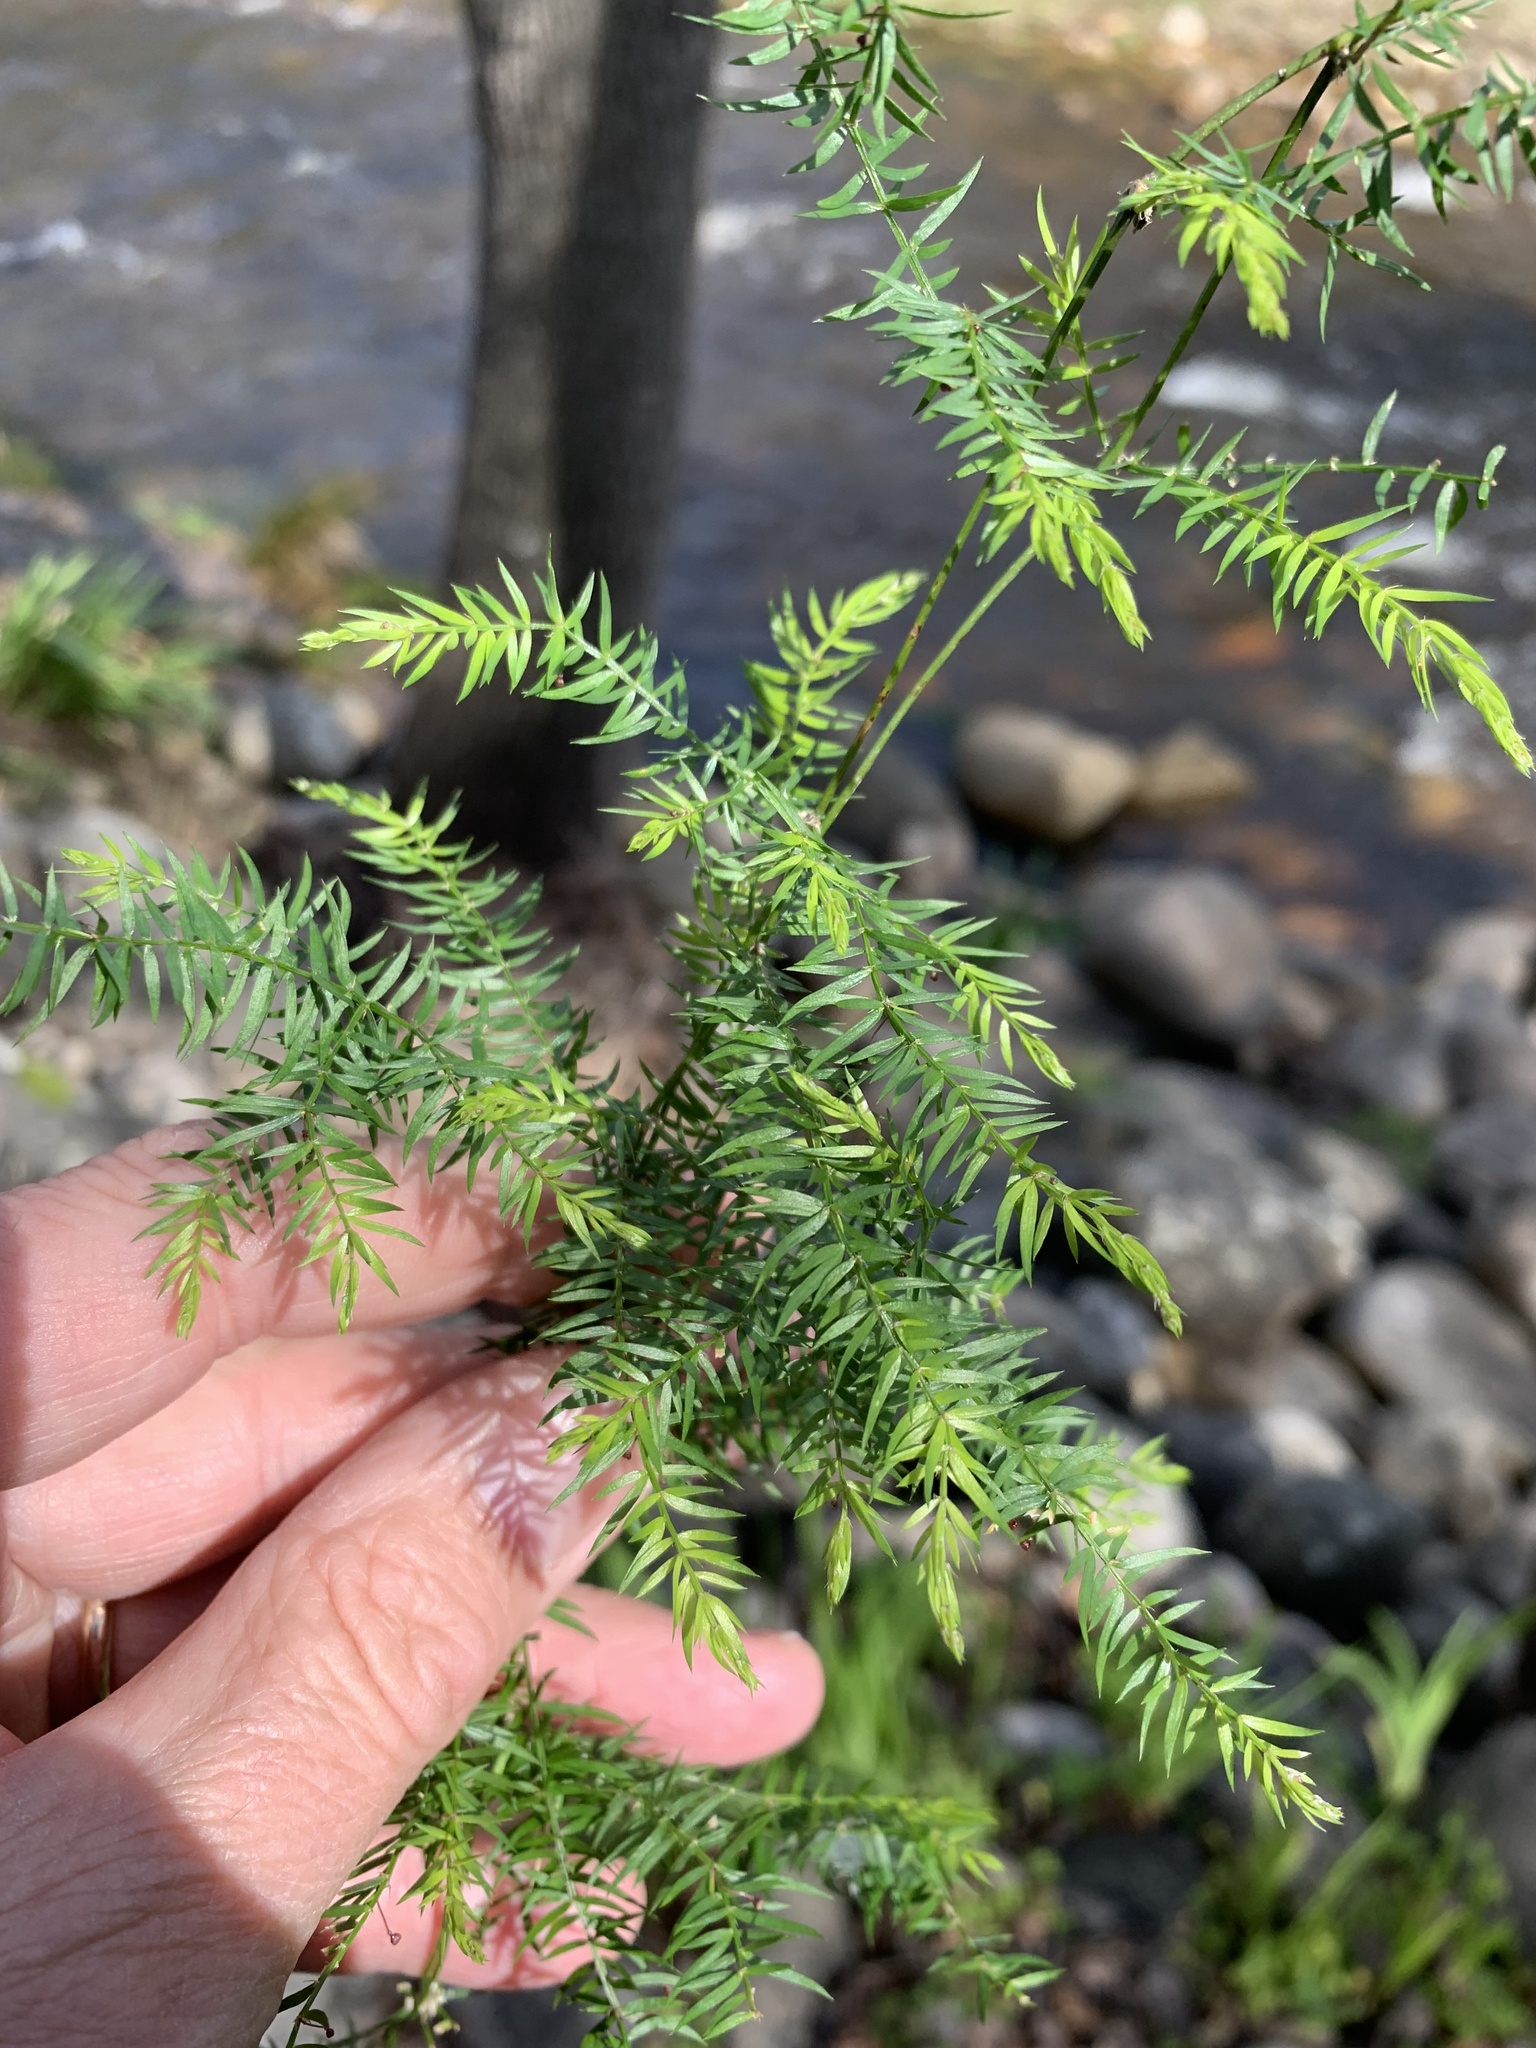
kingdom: Plantae
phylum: Tracheophyta
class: Liliopsida
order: Asparagales
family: Asparagaceae
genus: Asparagus
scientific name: Asparagus scandens
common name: Asparagus-fern
